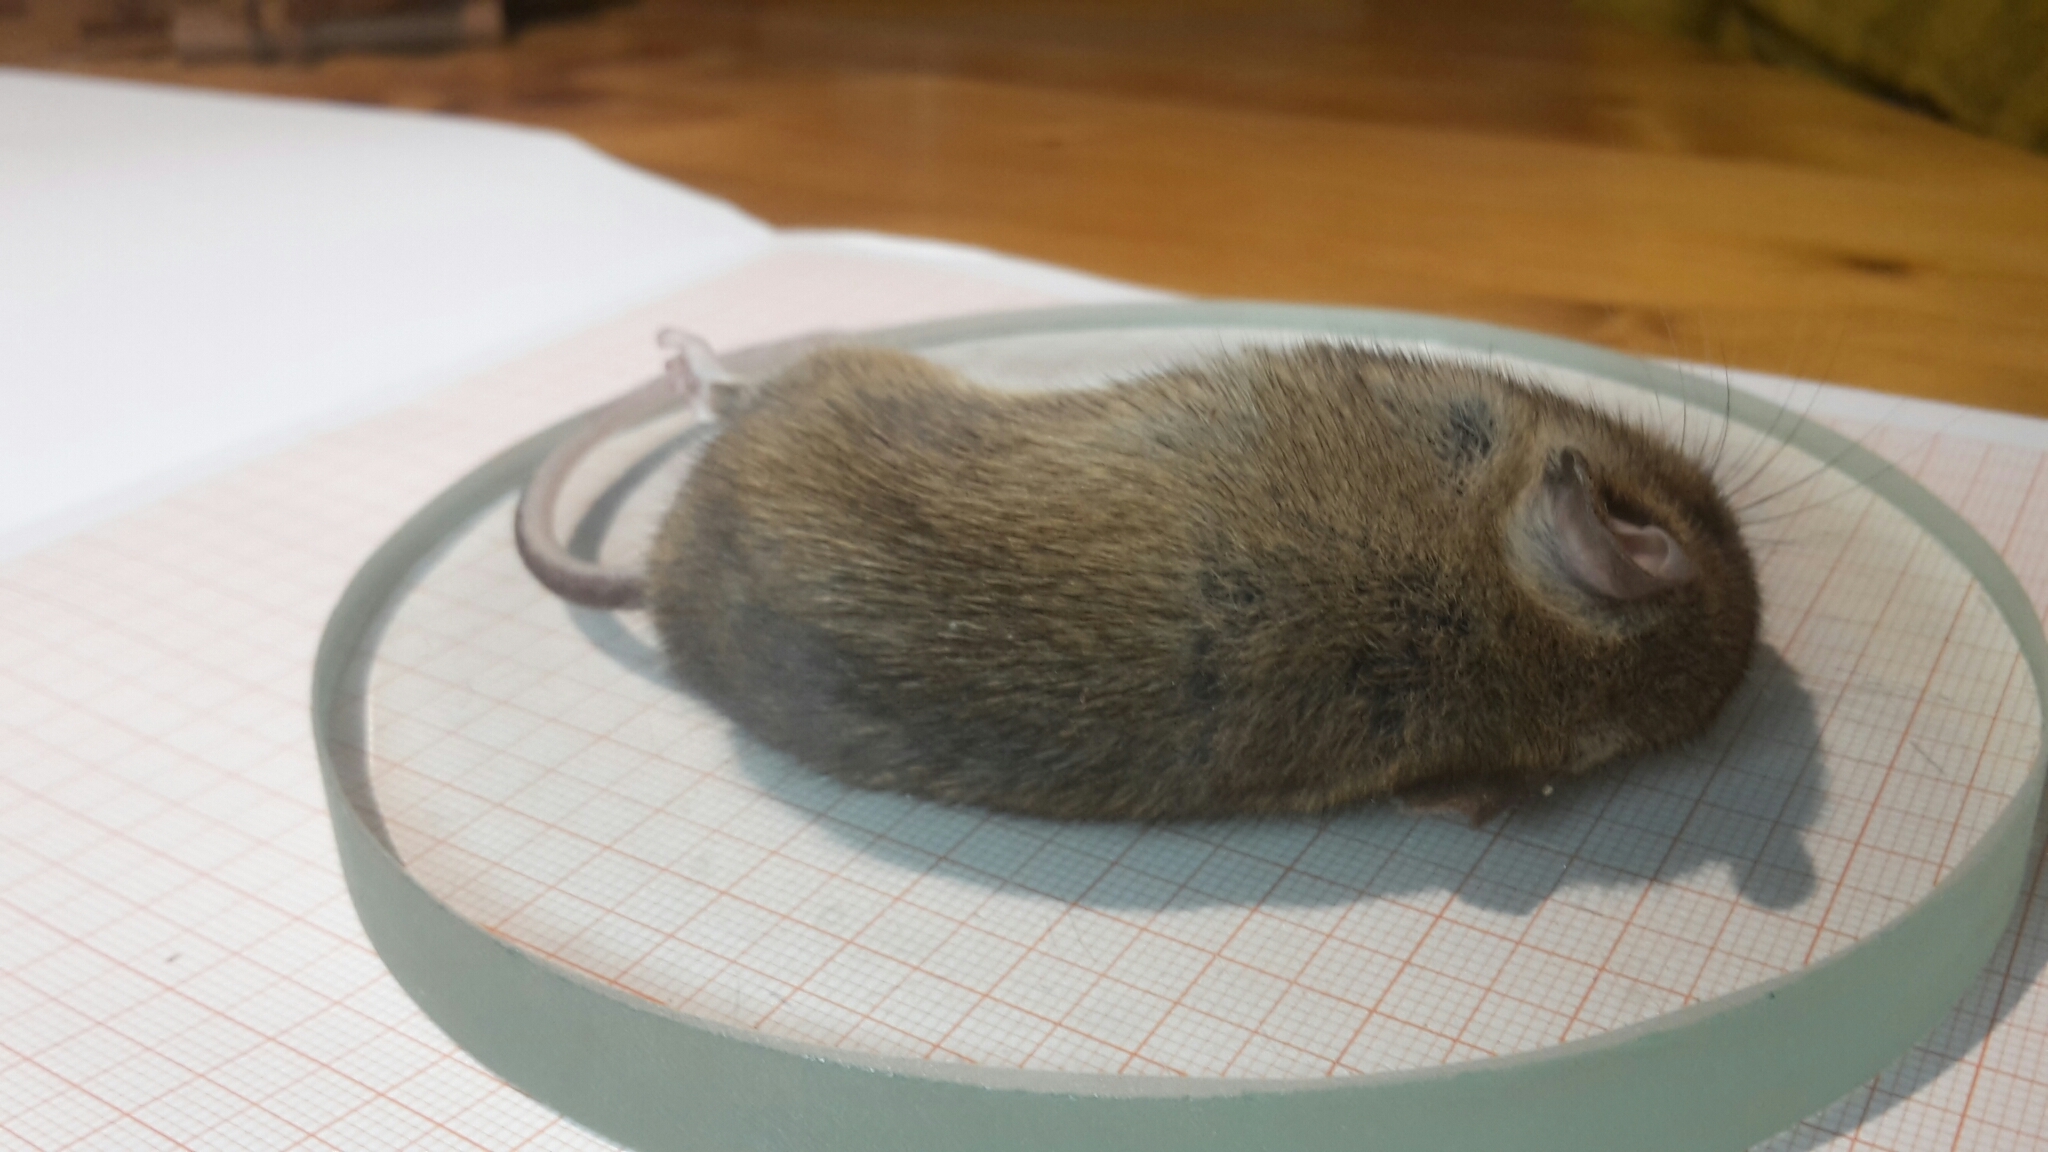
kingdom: Animalia
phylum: Chordata
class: Mammalia
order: Rodentia
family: Muridae
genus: Apodemus
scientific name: Apodemus sylvaticus
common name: Wood mouse
